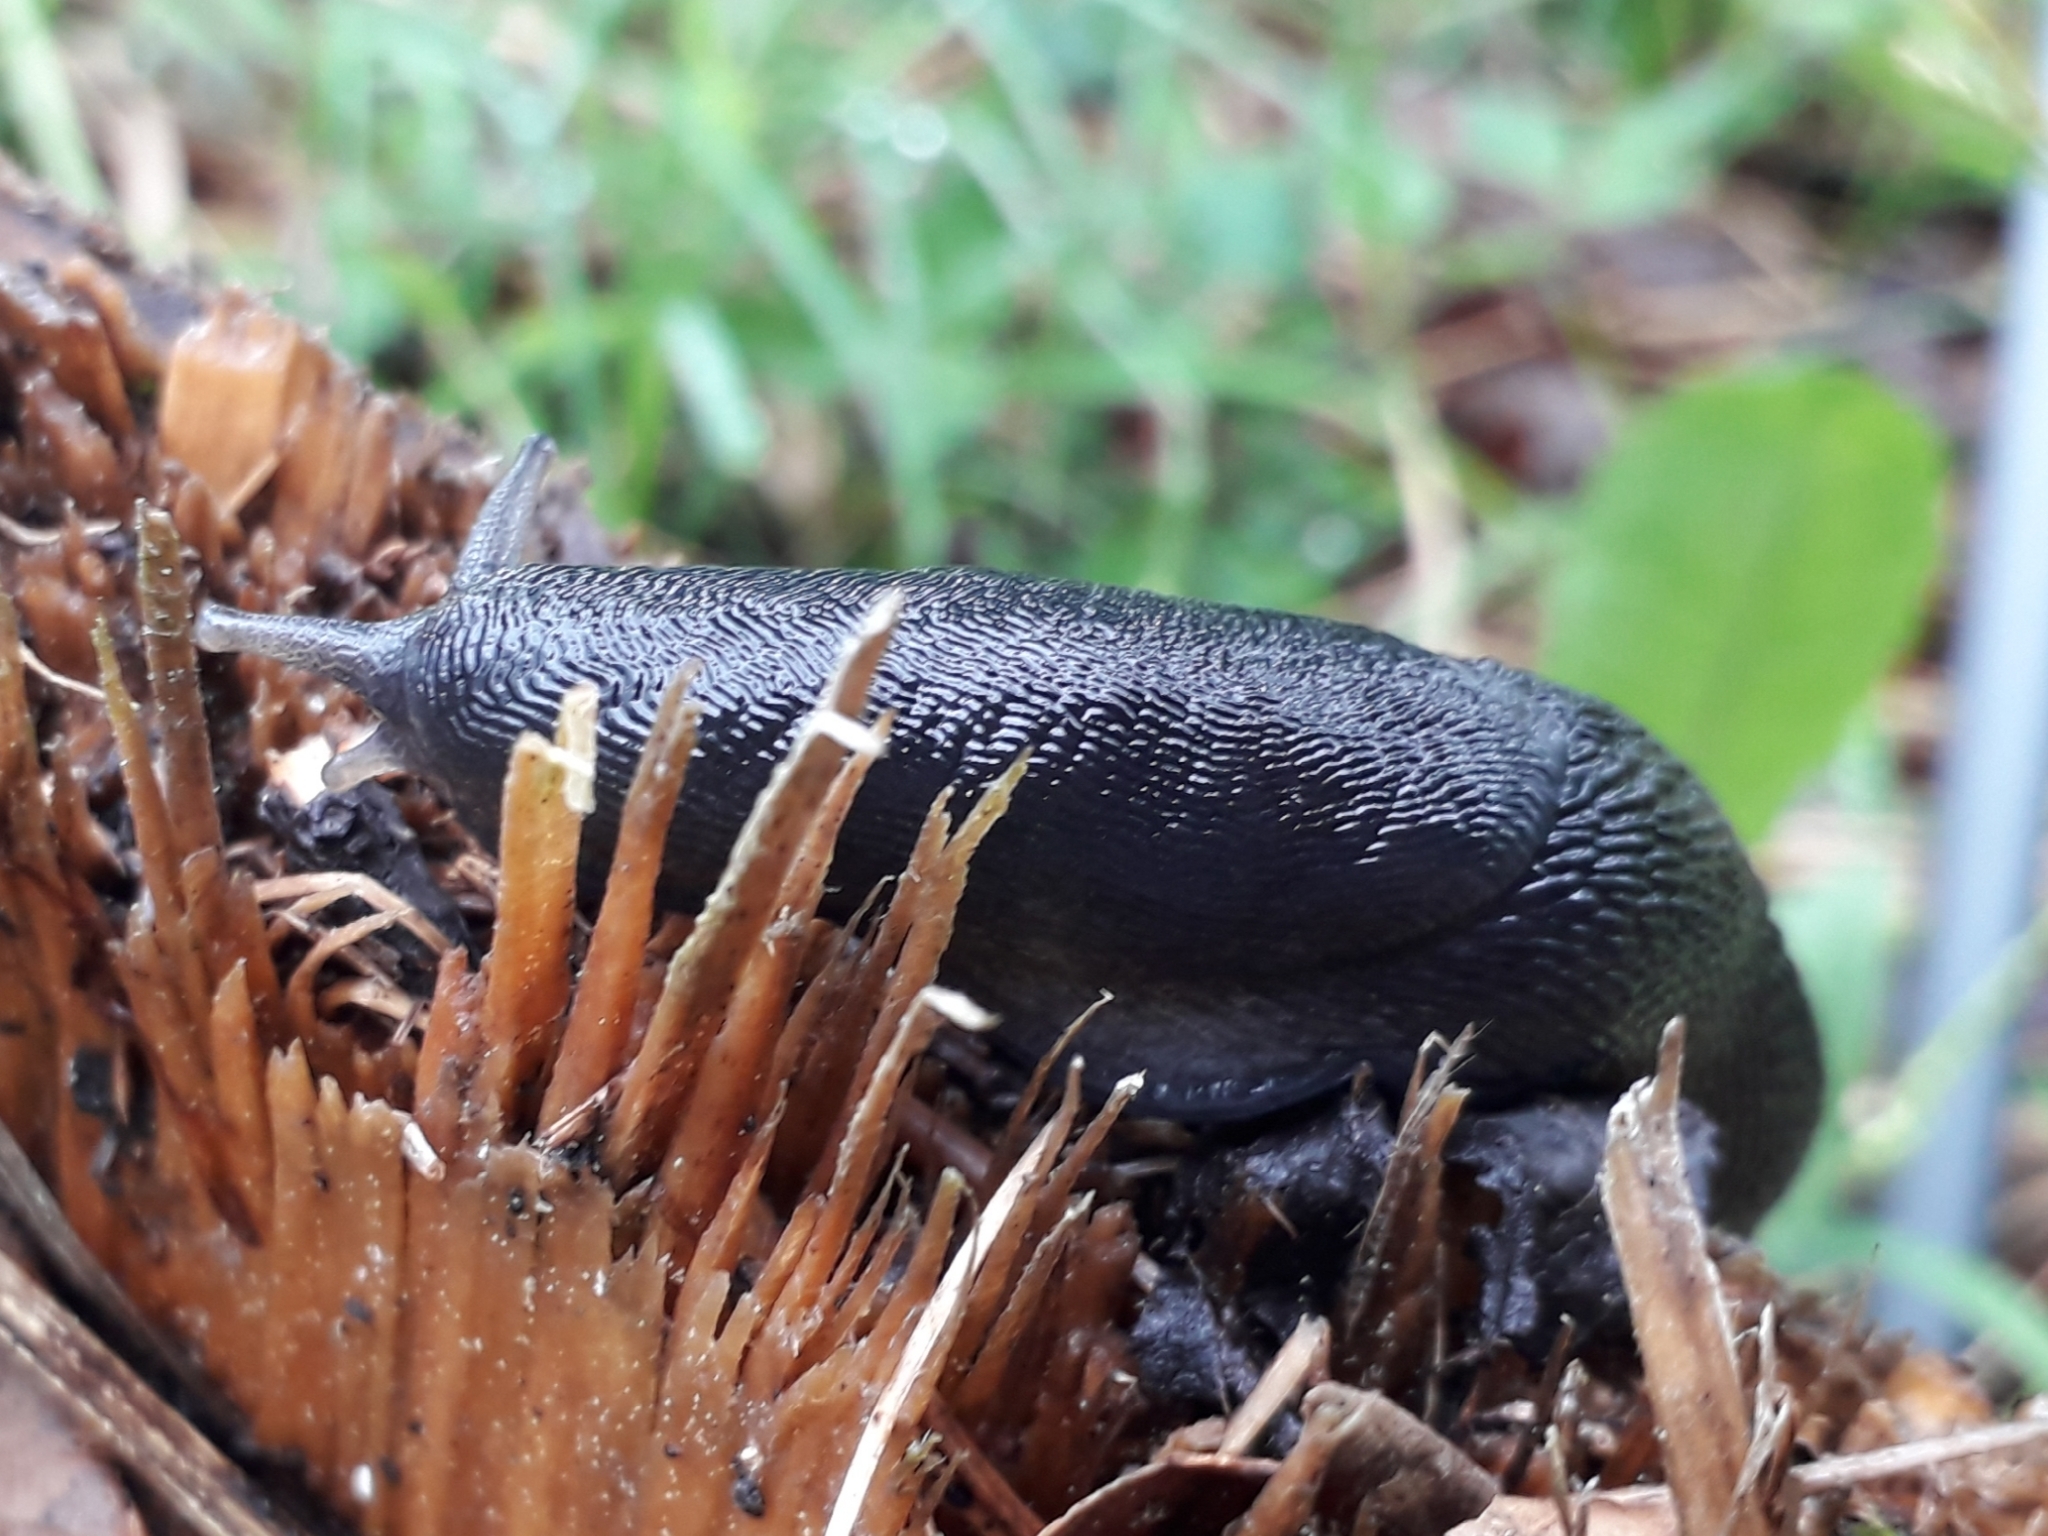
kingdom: Animalia
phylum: Mollusca
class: Gastropoda
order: Stylommatophora
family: Limacidae
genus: Limax
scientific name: Limax cinereoniger
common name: Ash-black slug
